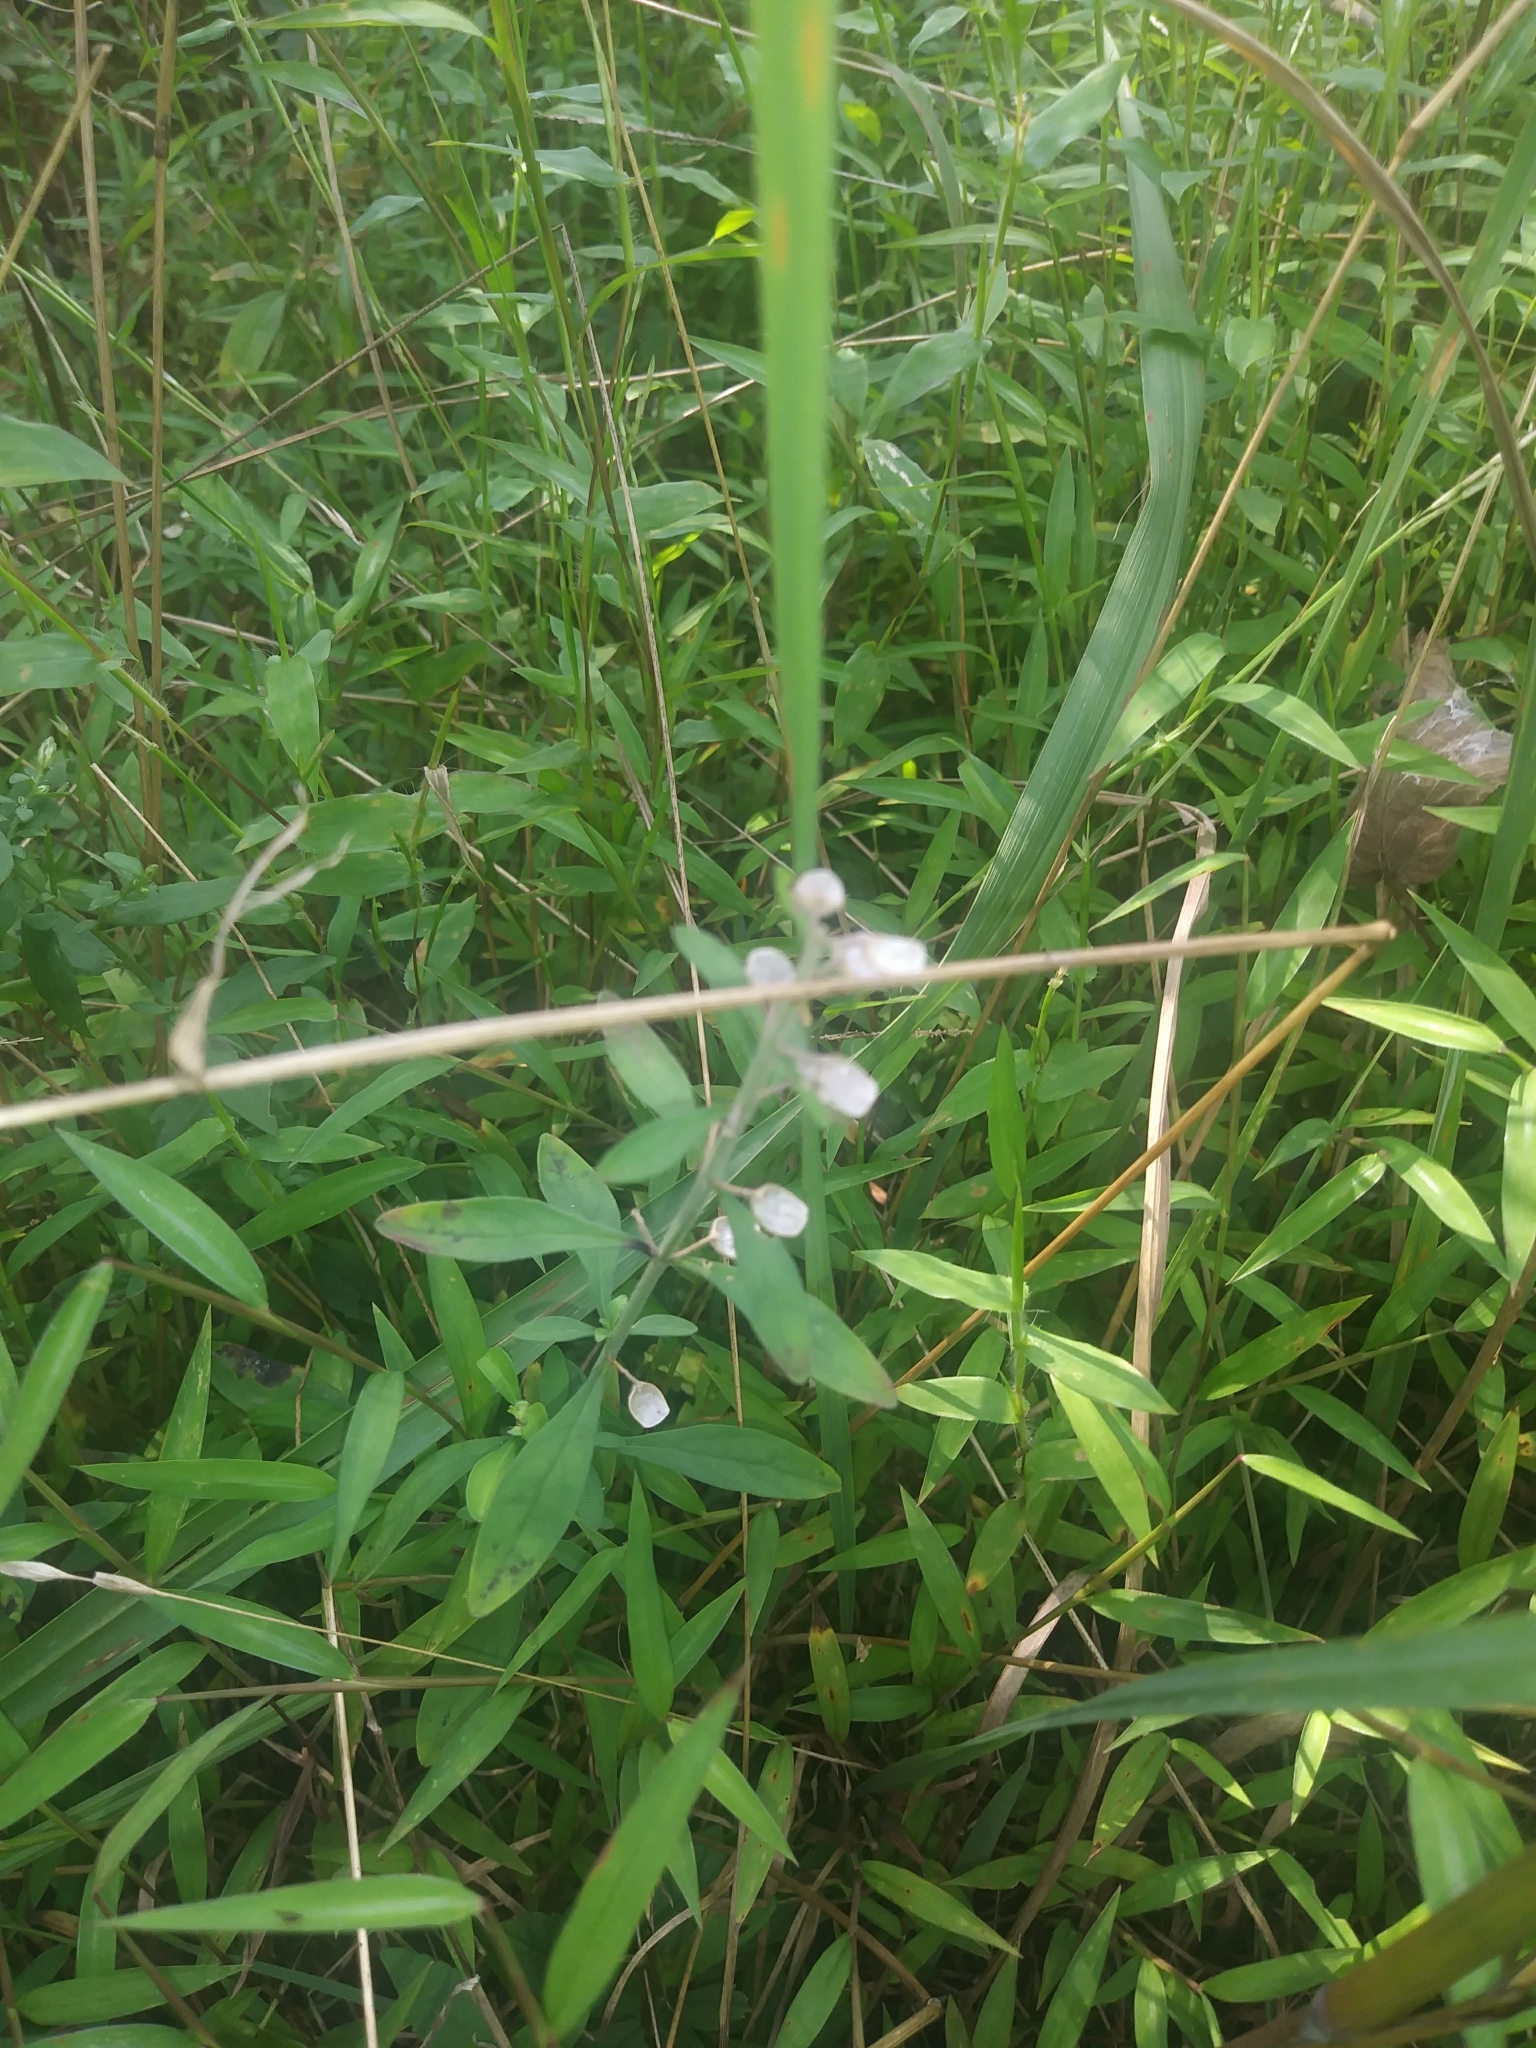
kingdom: Plantae
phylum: Tracheophyta
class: Magnoliopsida
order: Lamiales
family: Lamiaceae
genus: Scutellaria
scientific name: Scutellaria integrifolia
